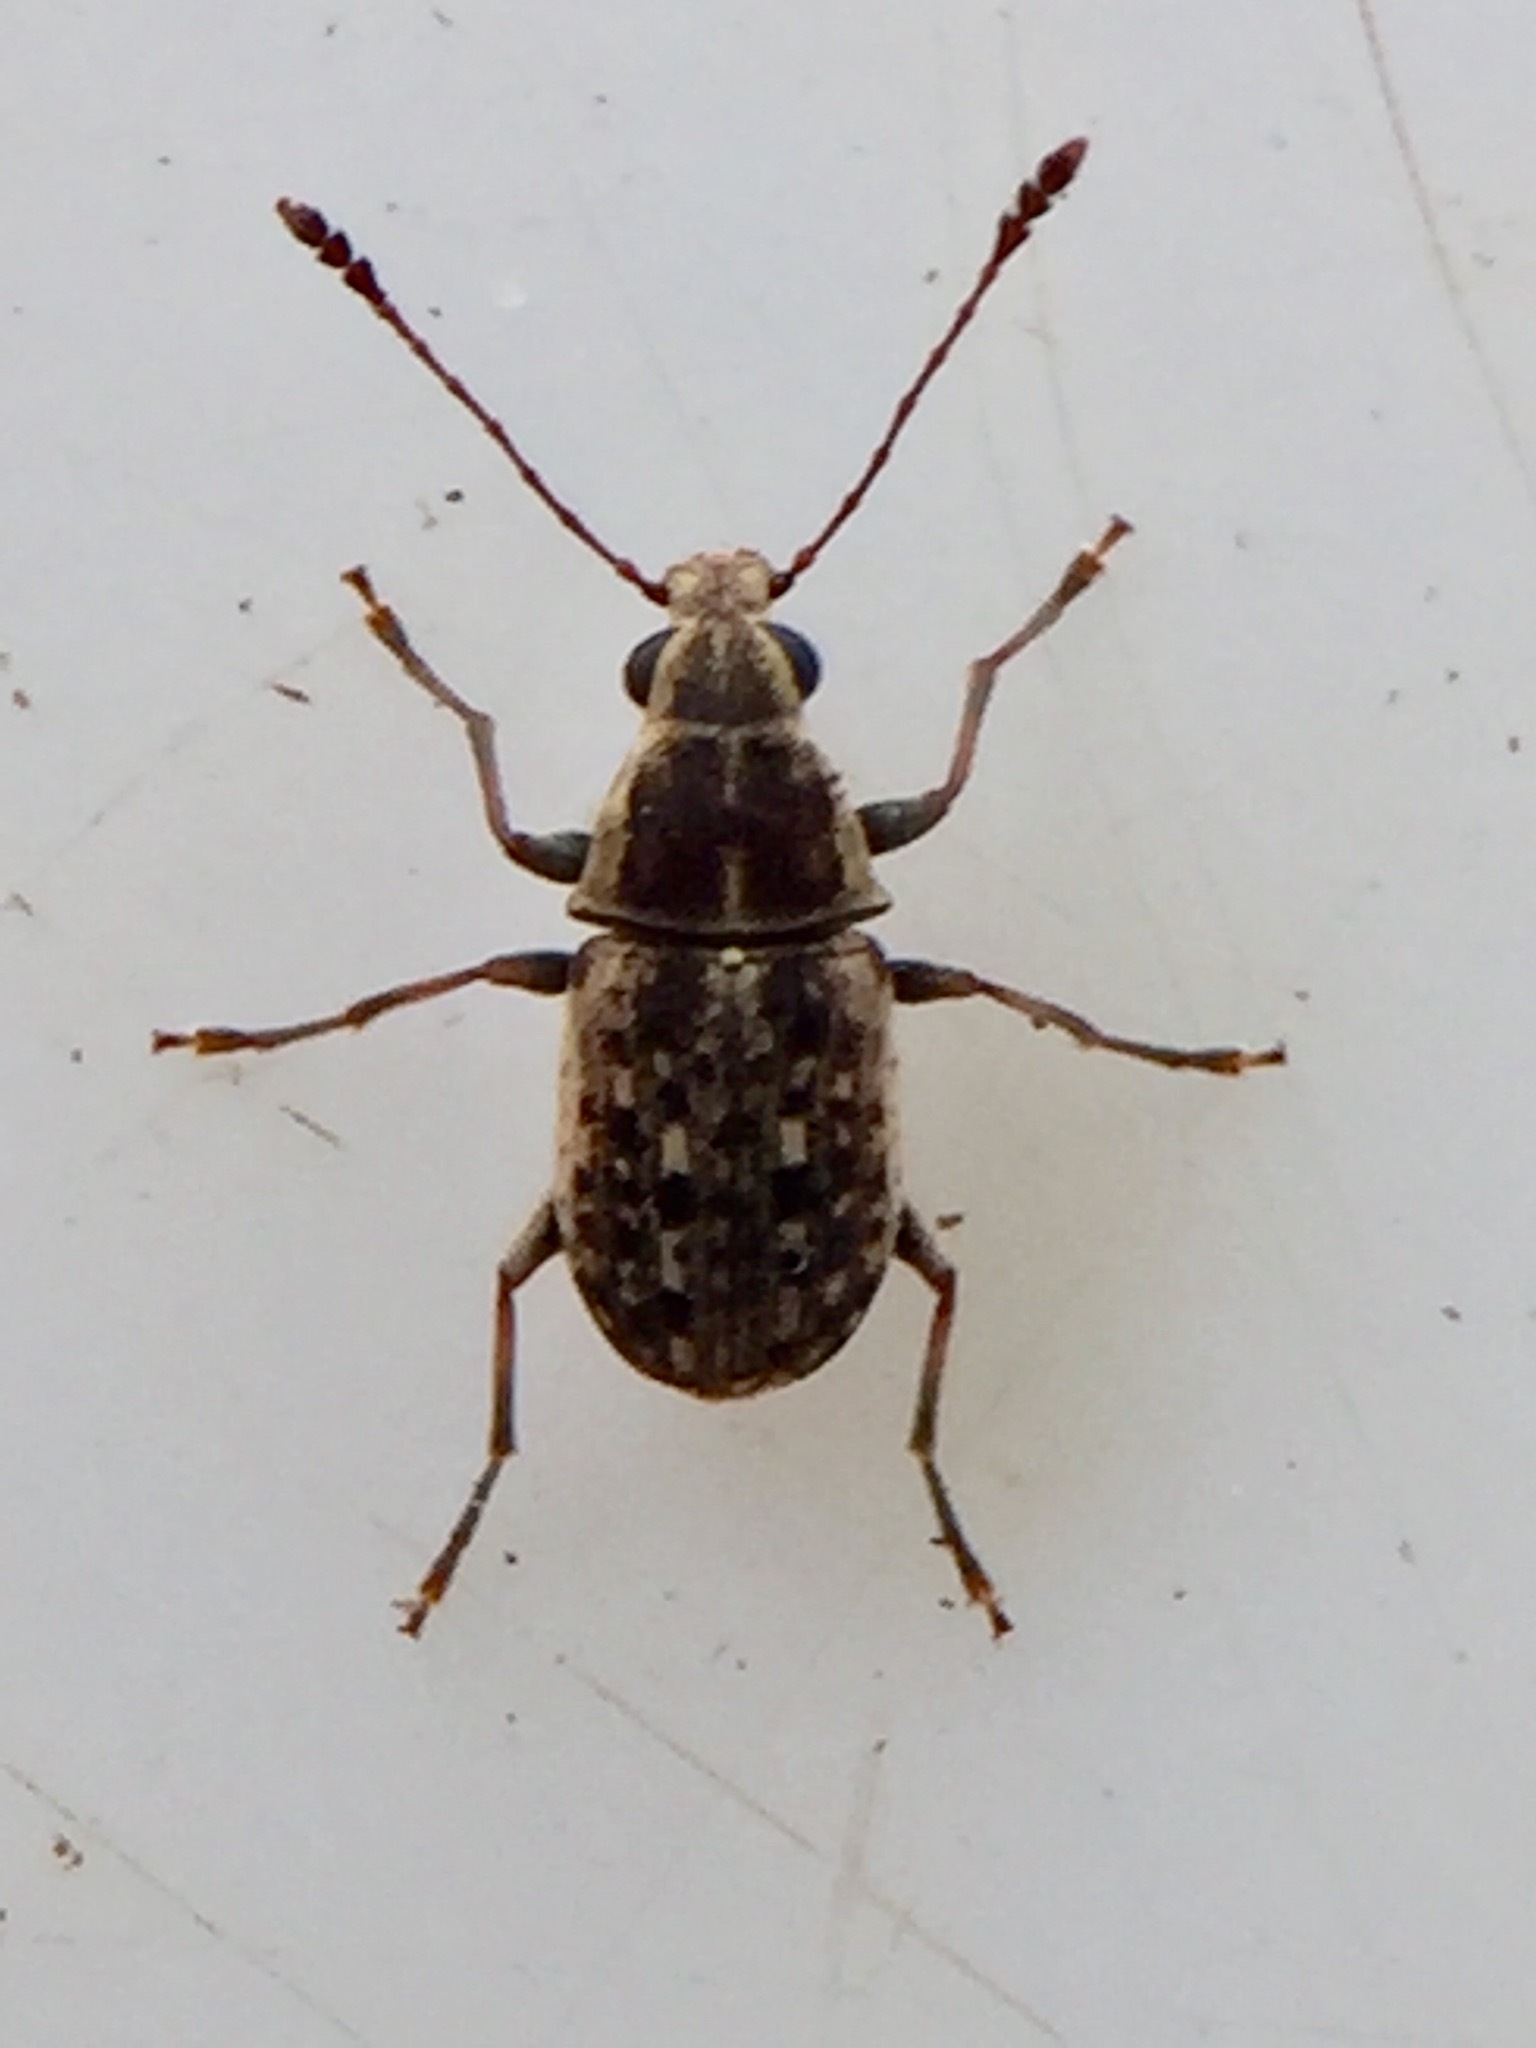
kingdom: Animalia
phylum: Arthropoda
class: Insecta
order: Coleoptera
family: Anthribidae
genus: Cacephatus
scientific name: Cacephatus huttoni
